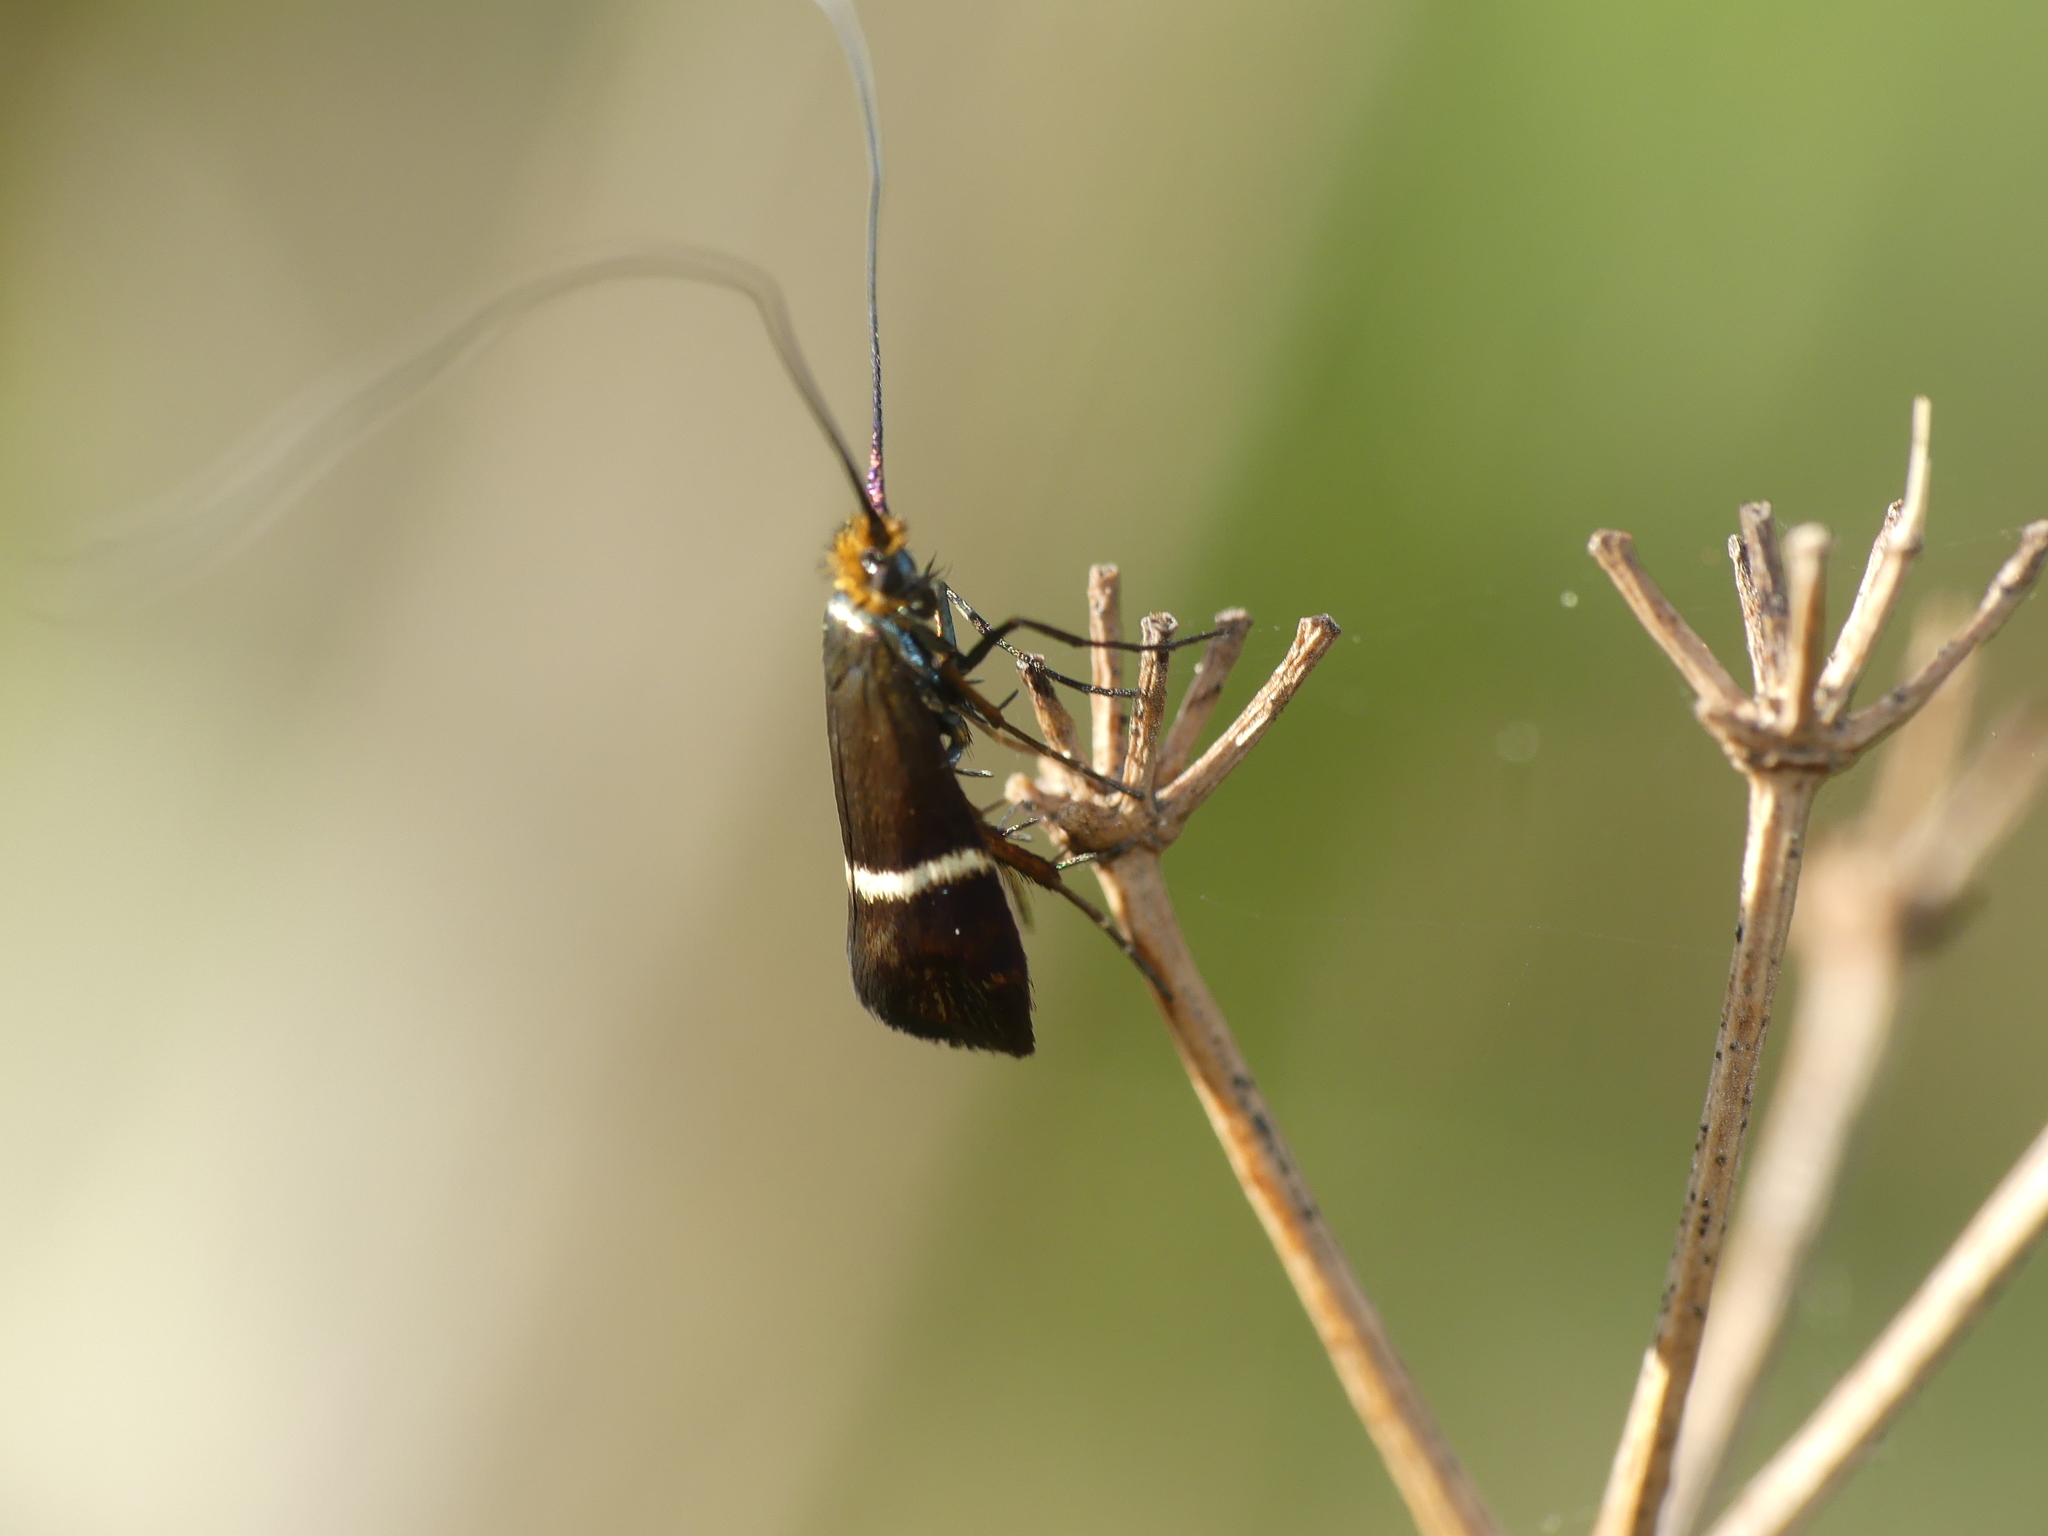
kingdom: Animalia
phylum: Arthropoda
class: Insecta
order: Lepidoptera
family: Adelidae
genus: Adela
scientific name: Adela australis
